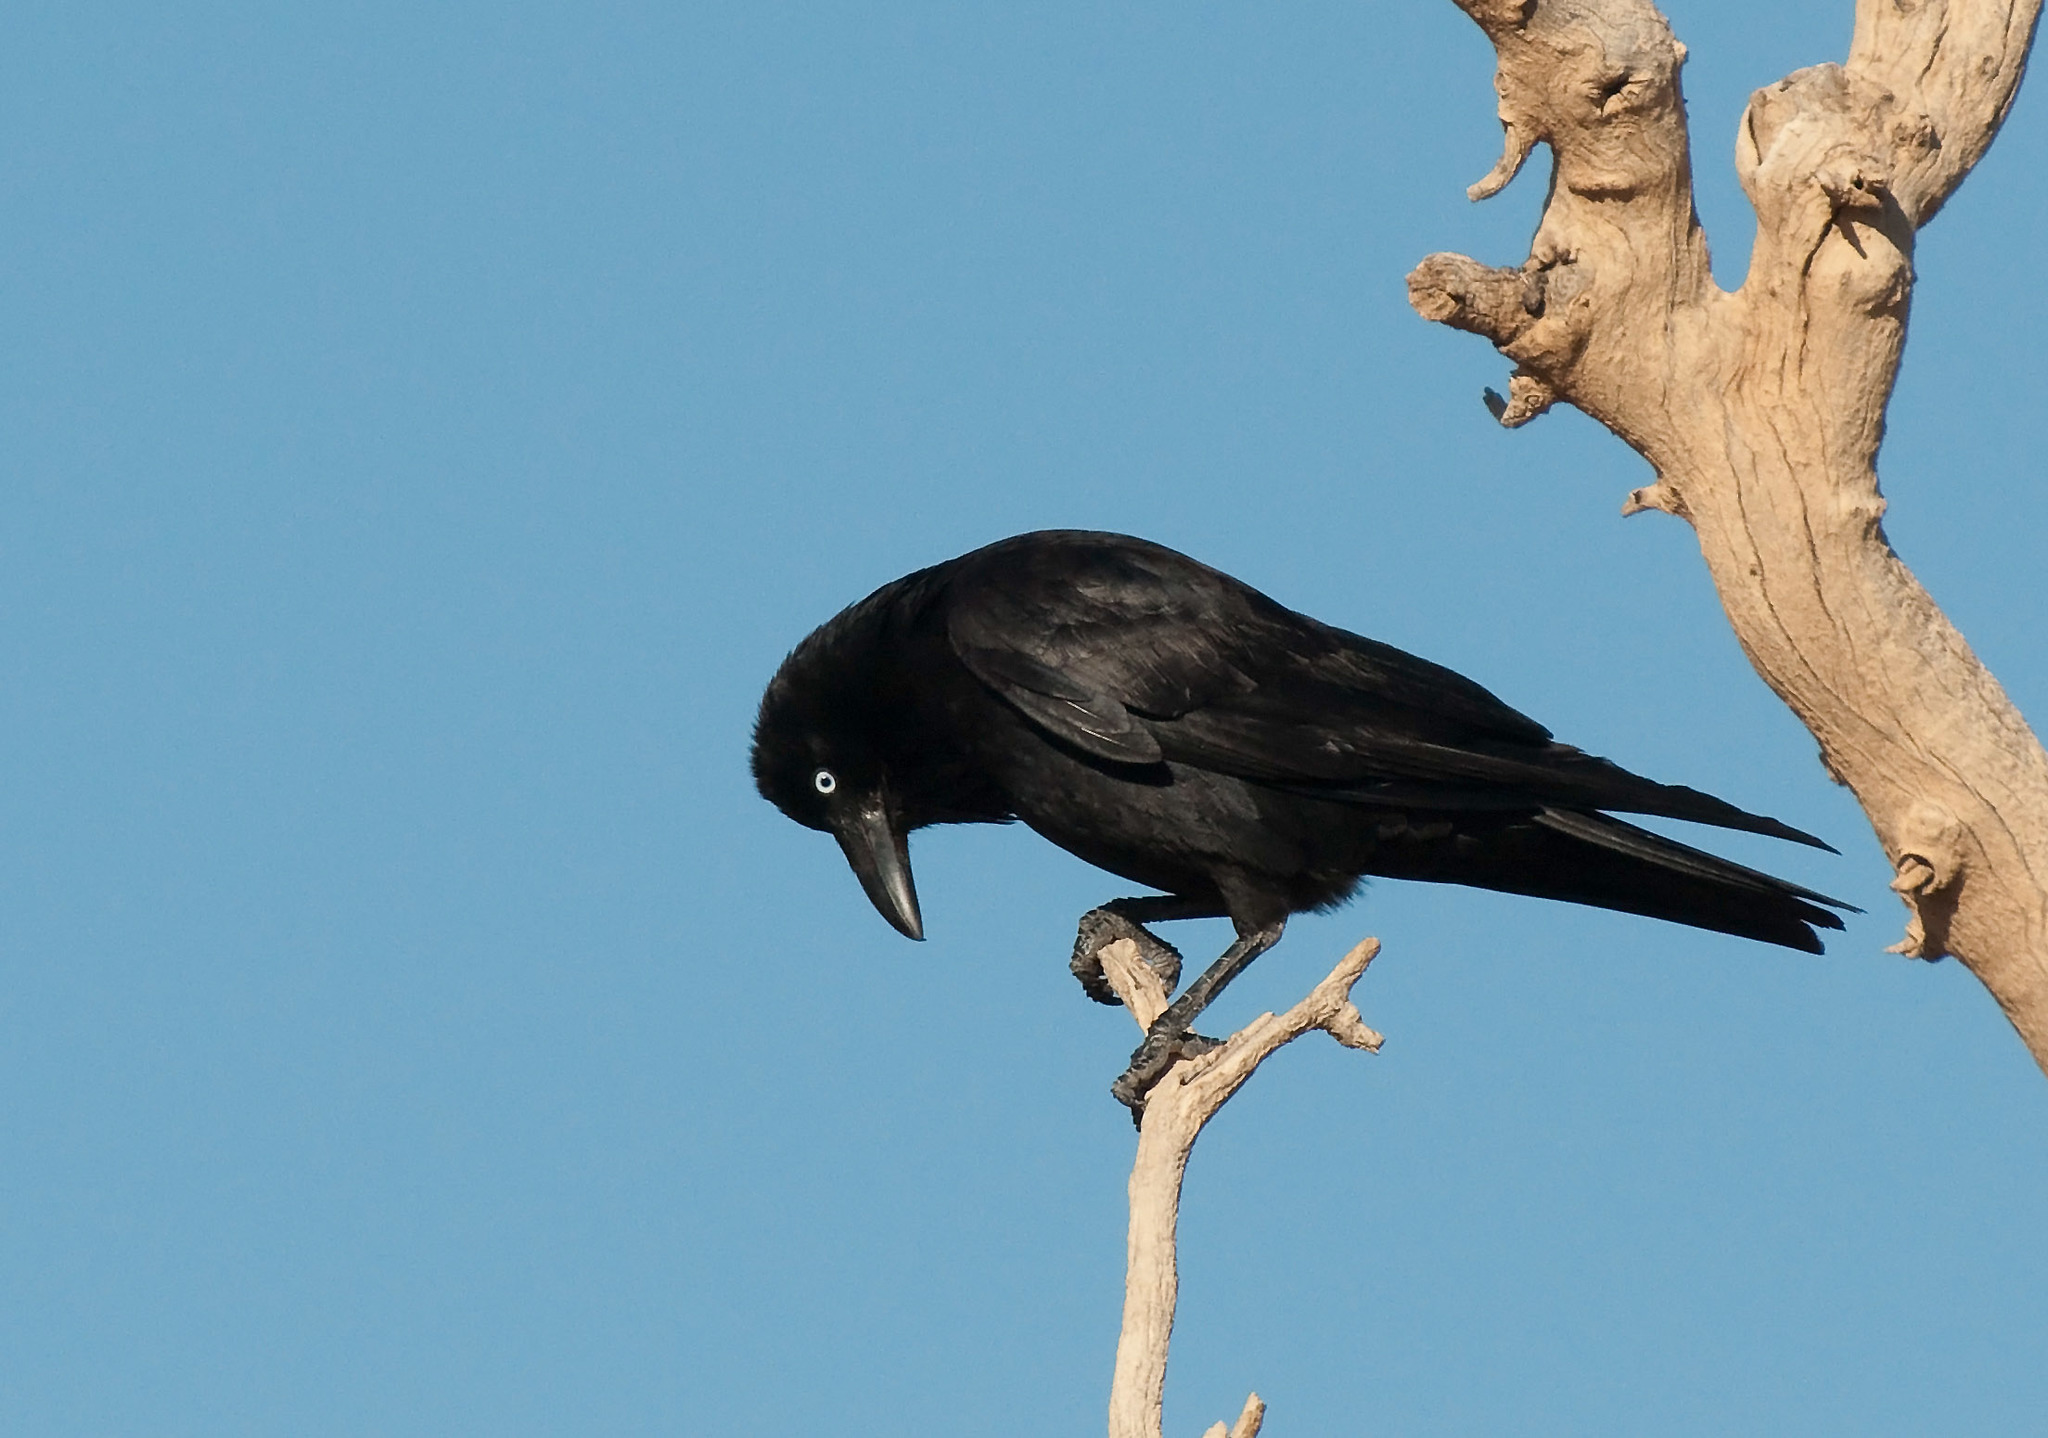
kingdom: Animalia
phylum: Chordata
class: Aves
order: Passeriformes
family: Corvidae
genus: Corvus
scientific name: Corvus bennetti
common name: Little crow
